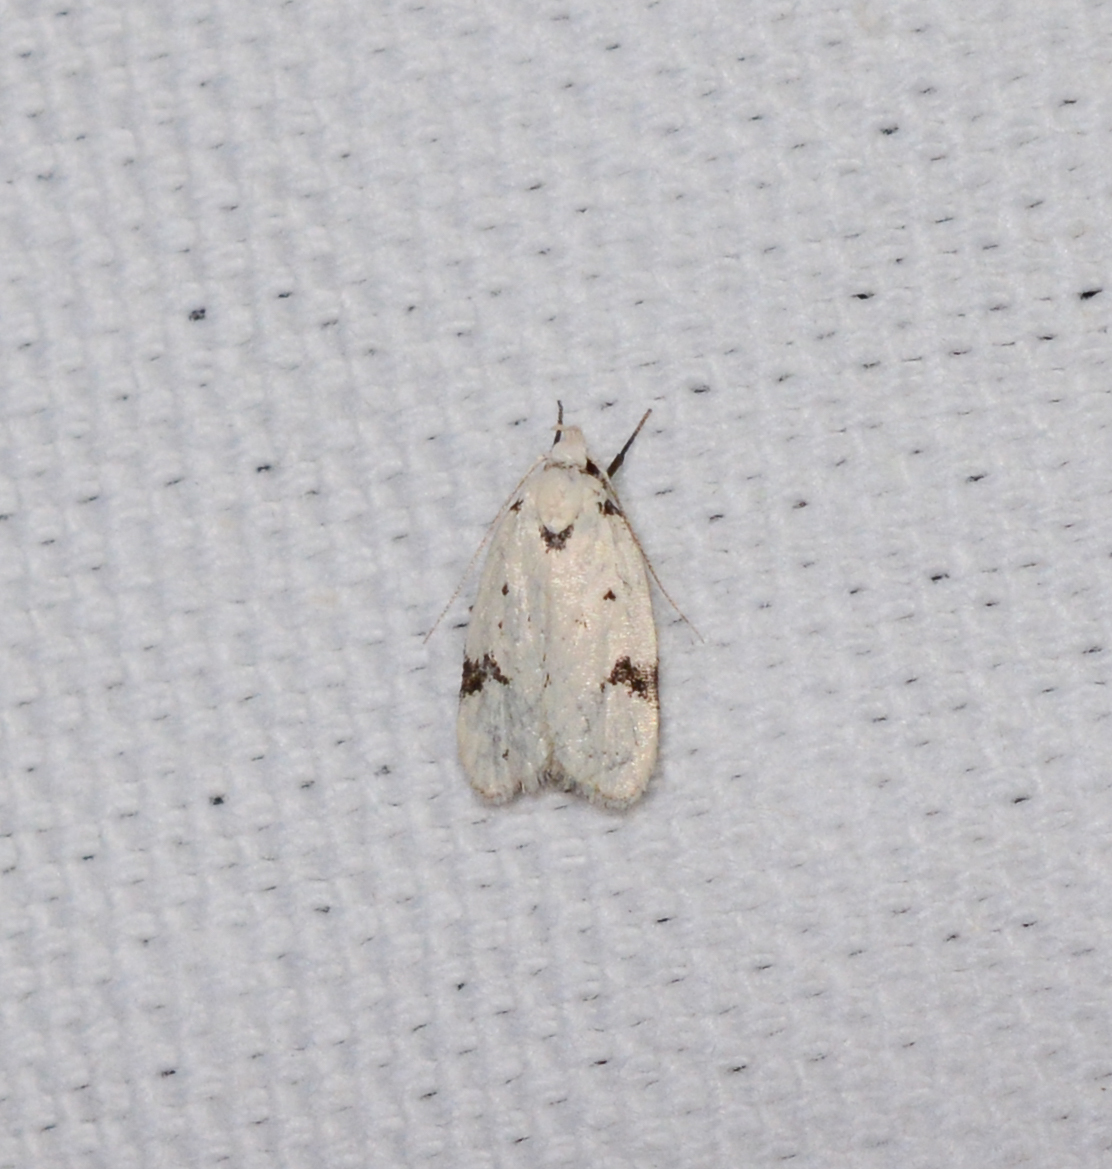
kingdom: Animalia
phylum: Arthropoda
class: Insecta
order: Lepidoptera
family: Oecophoridae
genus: Inga
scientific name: Inga sparsiciliella
